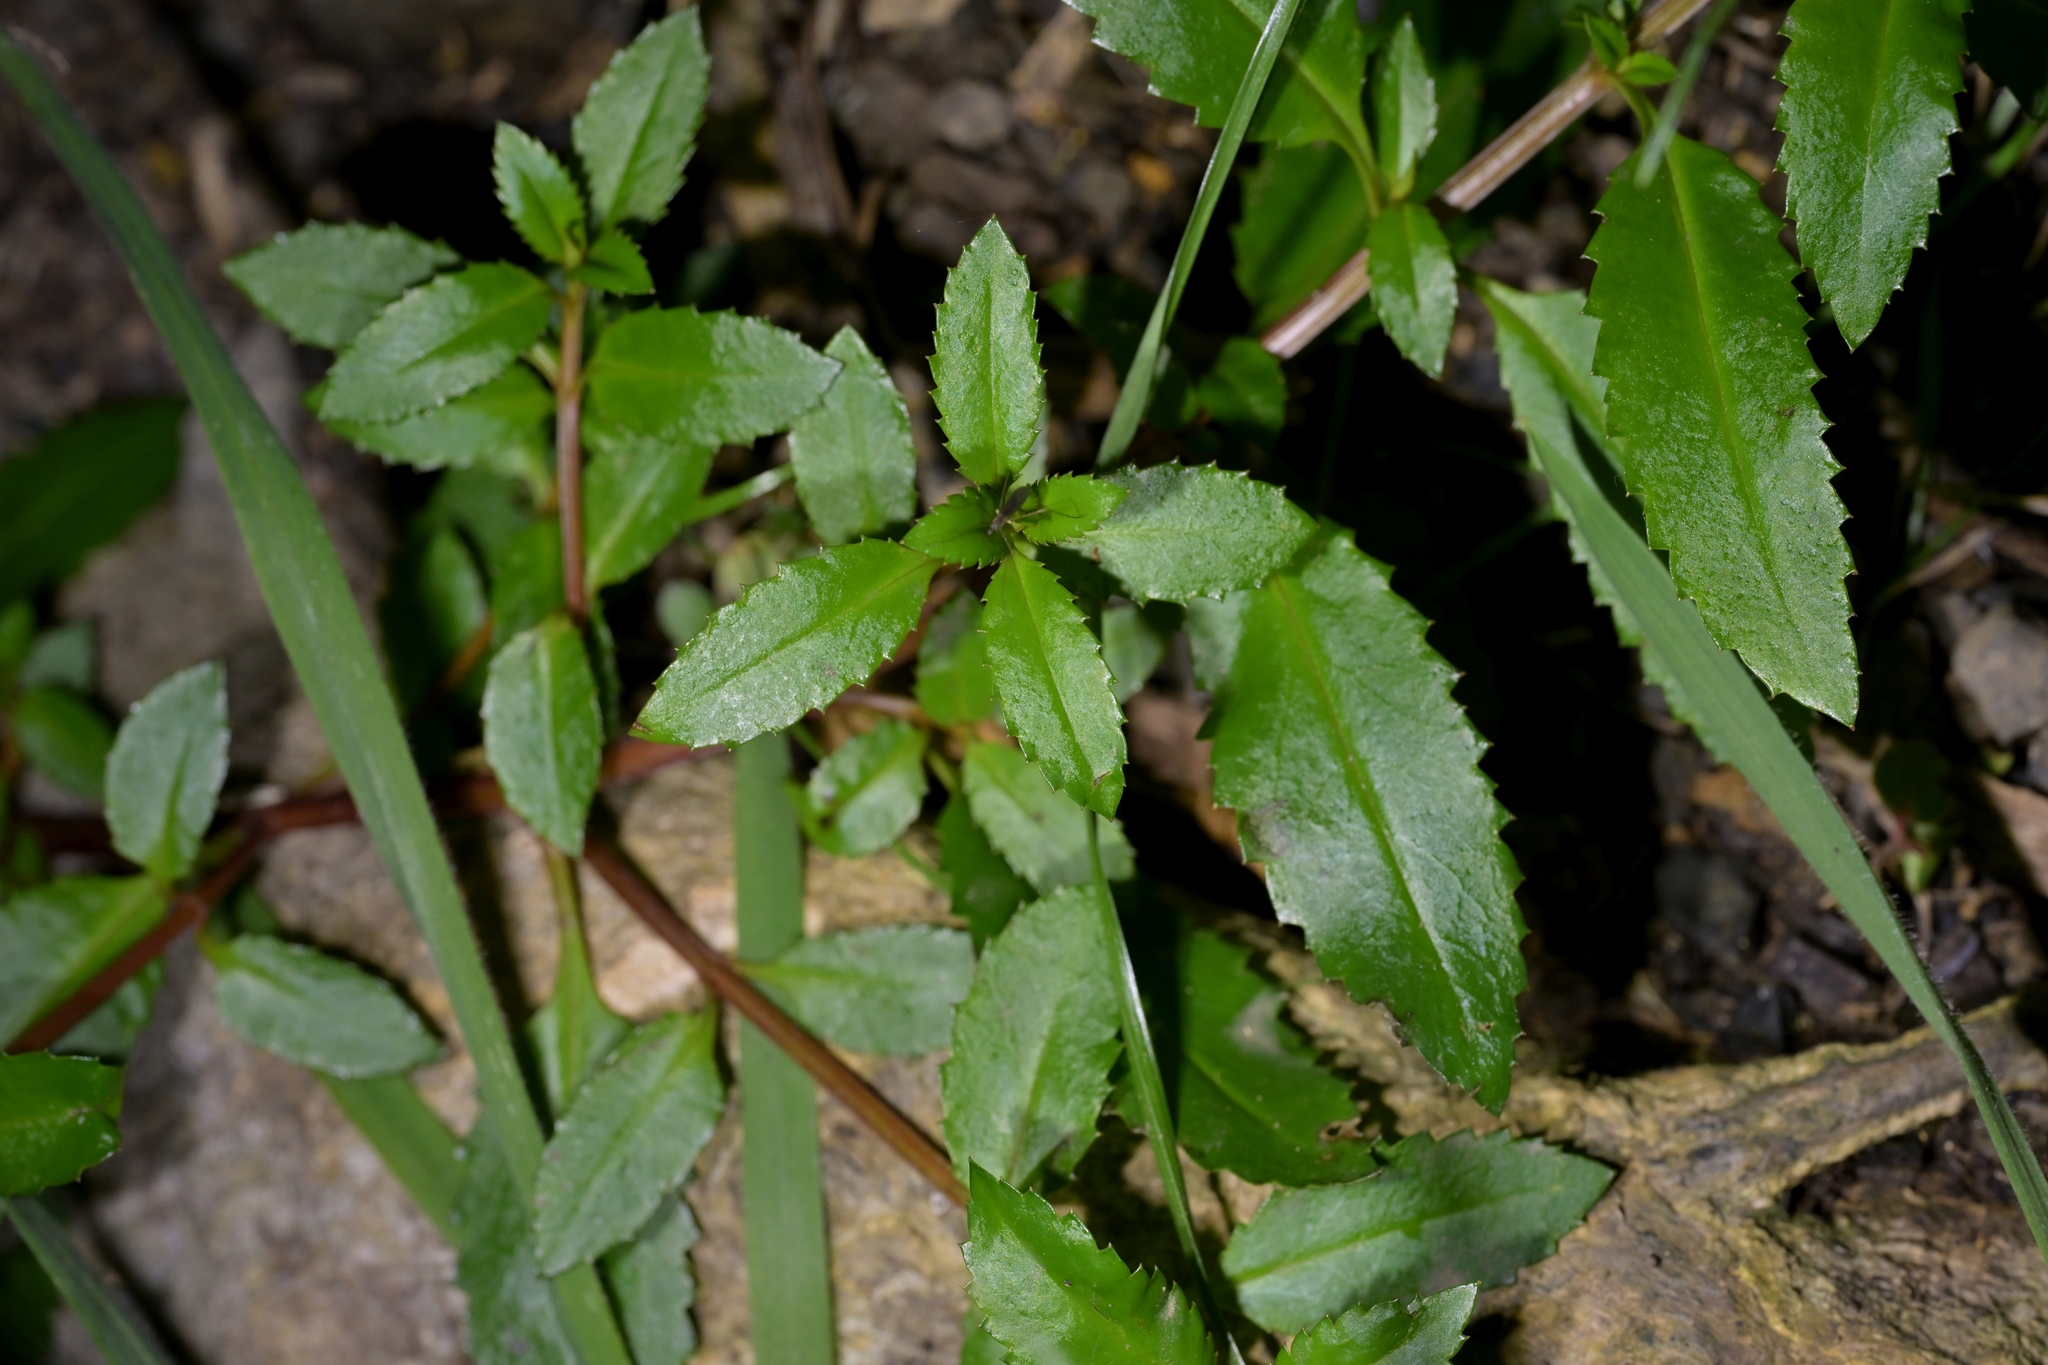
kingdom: Plantae
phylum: Tracheophyta
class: Magnoliopsida
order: Saxifragales
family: Haloragaceae
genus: Haloragis
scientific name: Haloragis erecta
